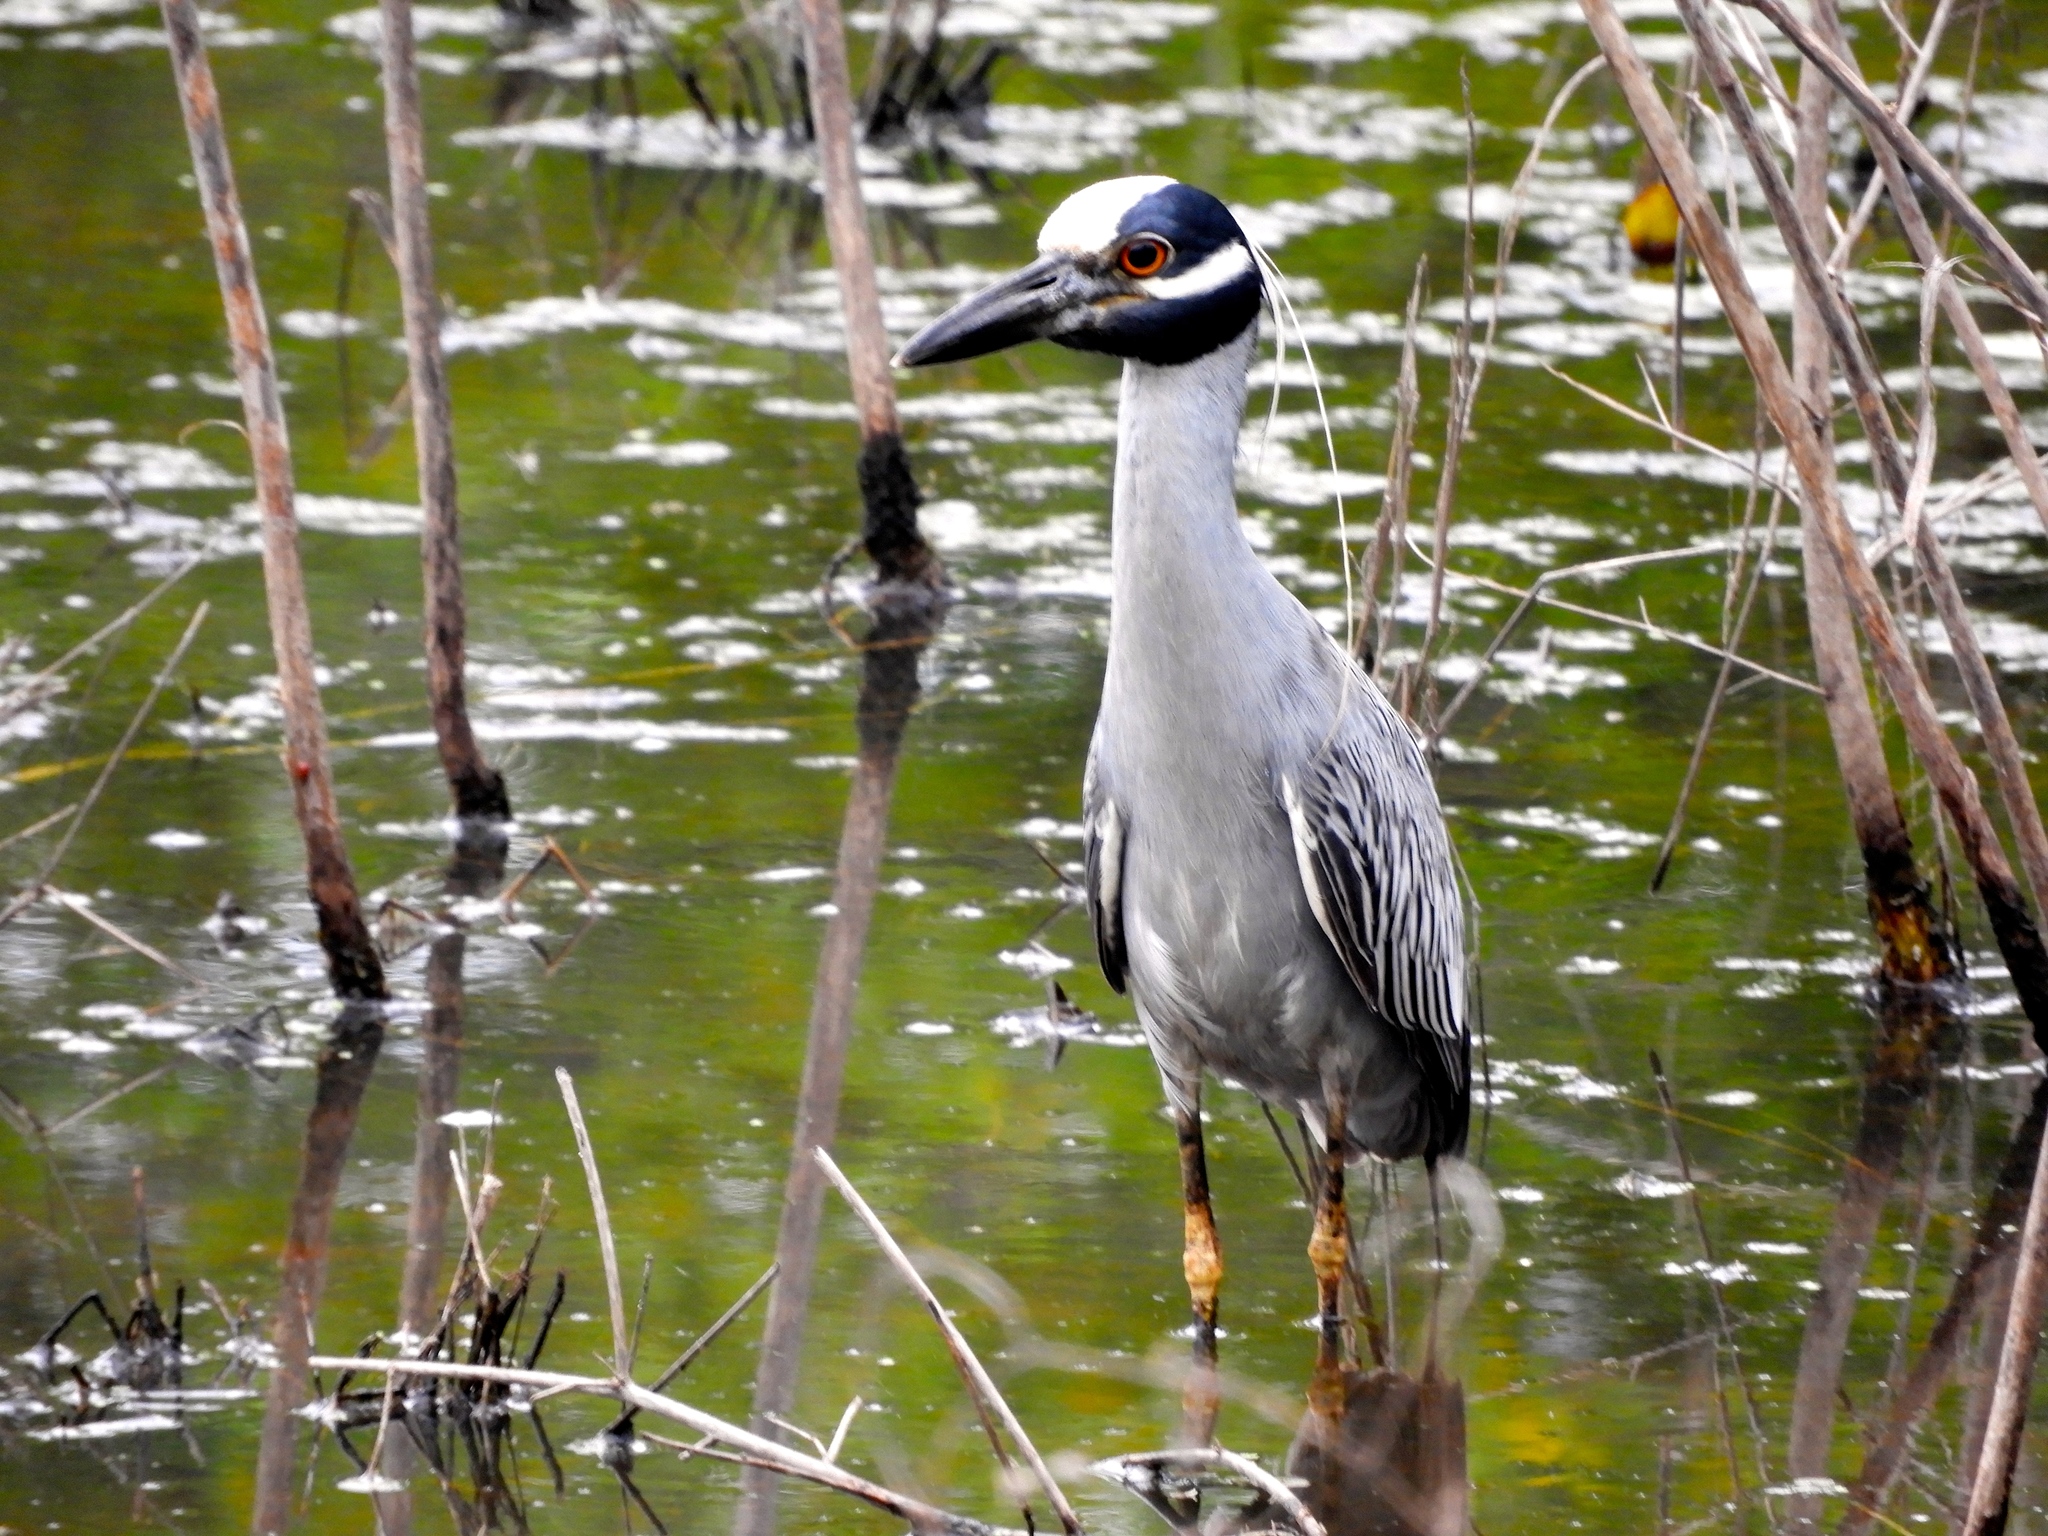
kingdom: Animalia
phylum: Chordata
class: Aves
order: Pelecaniformes
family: Ardeidae
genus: Nyctanassa
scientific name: Nyctanassa violacea
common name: Yellow-crowned night heron
